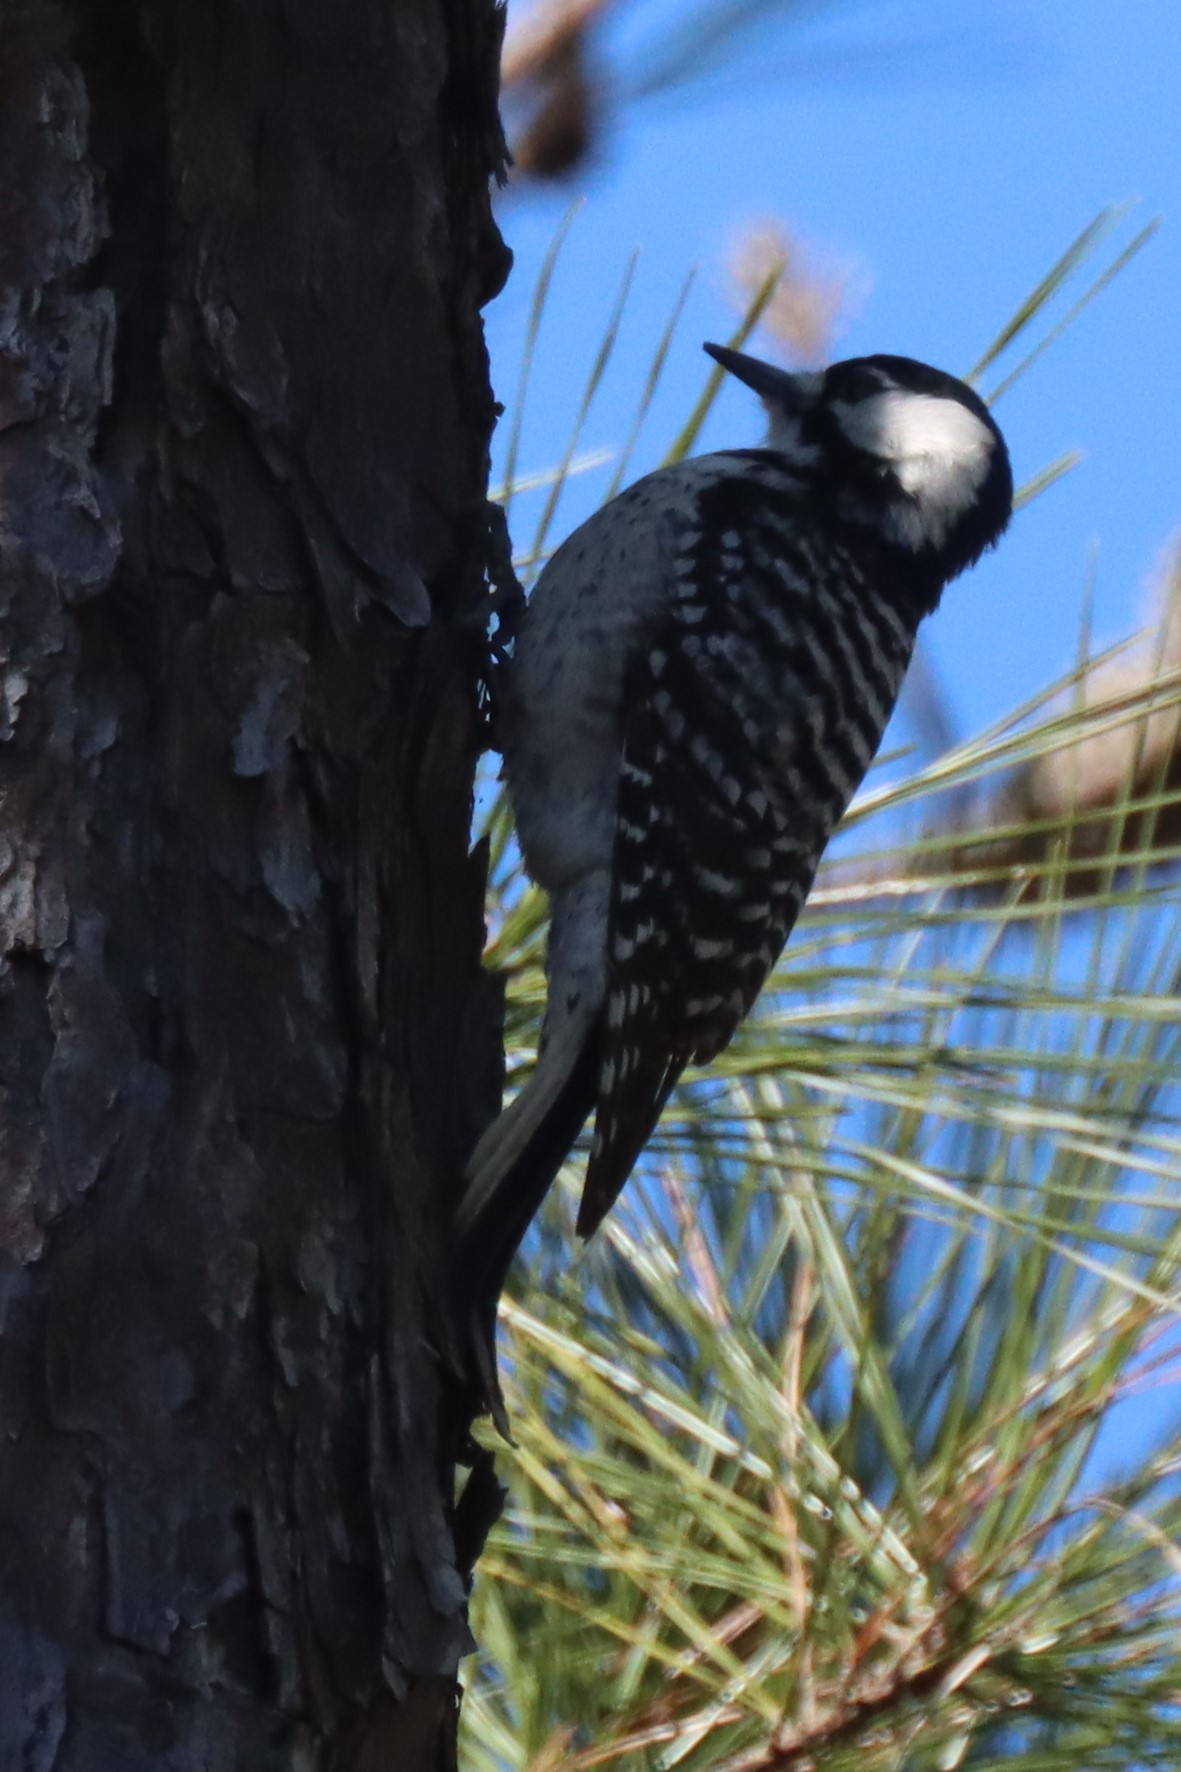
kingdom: Animalia
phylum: Chordata
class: Aves
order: Piciformes
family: Picidae
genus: Leuconotopicus
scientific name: Leuconotopicus borealis
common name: Red-cockaded woodpecker
